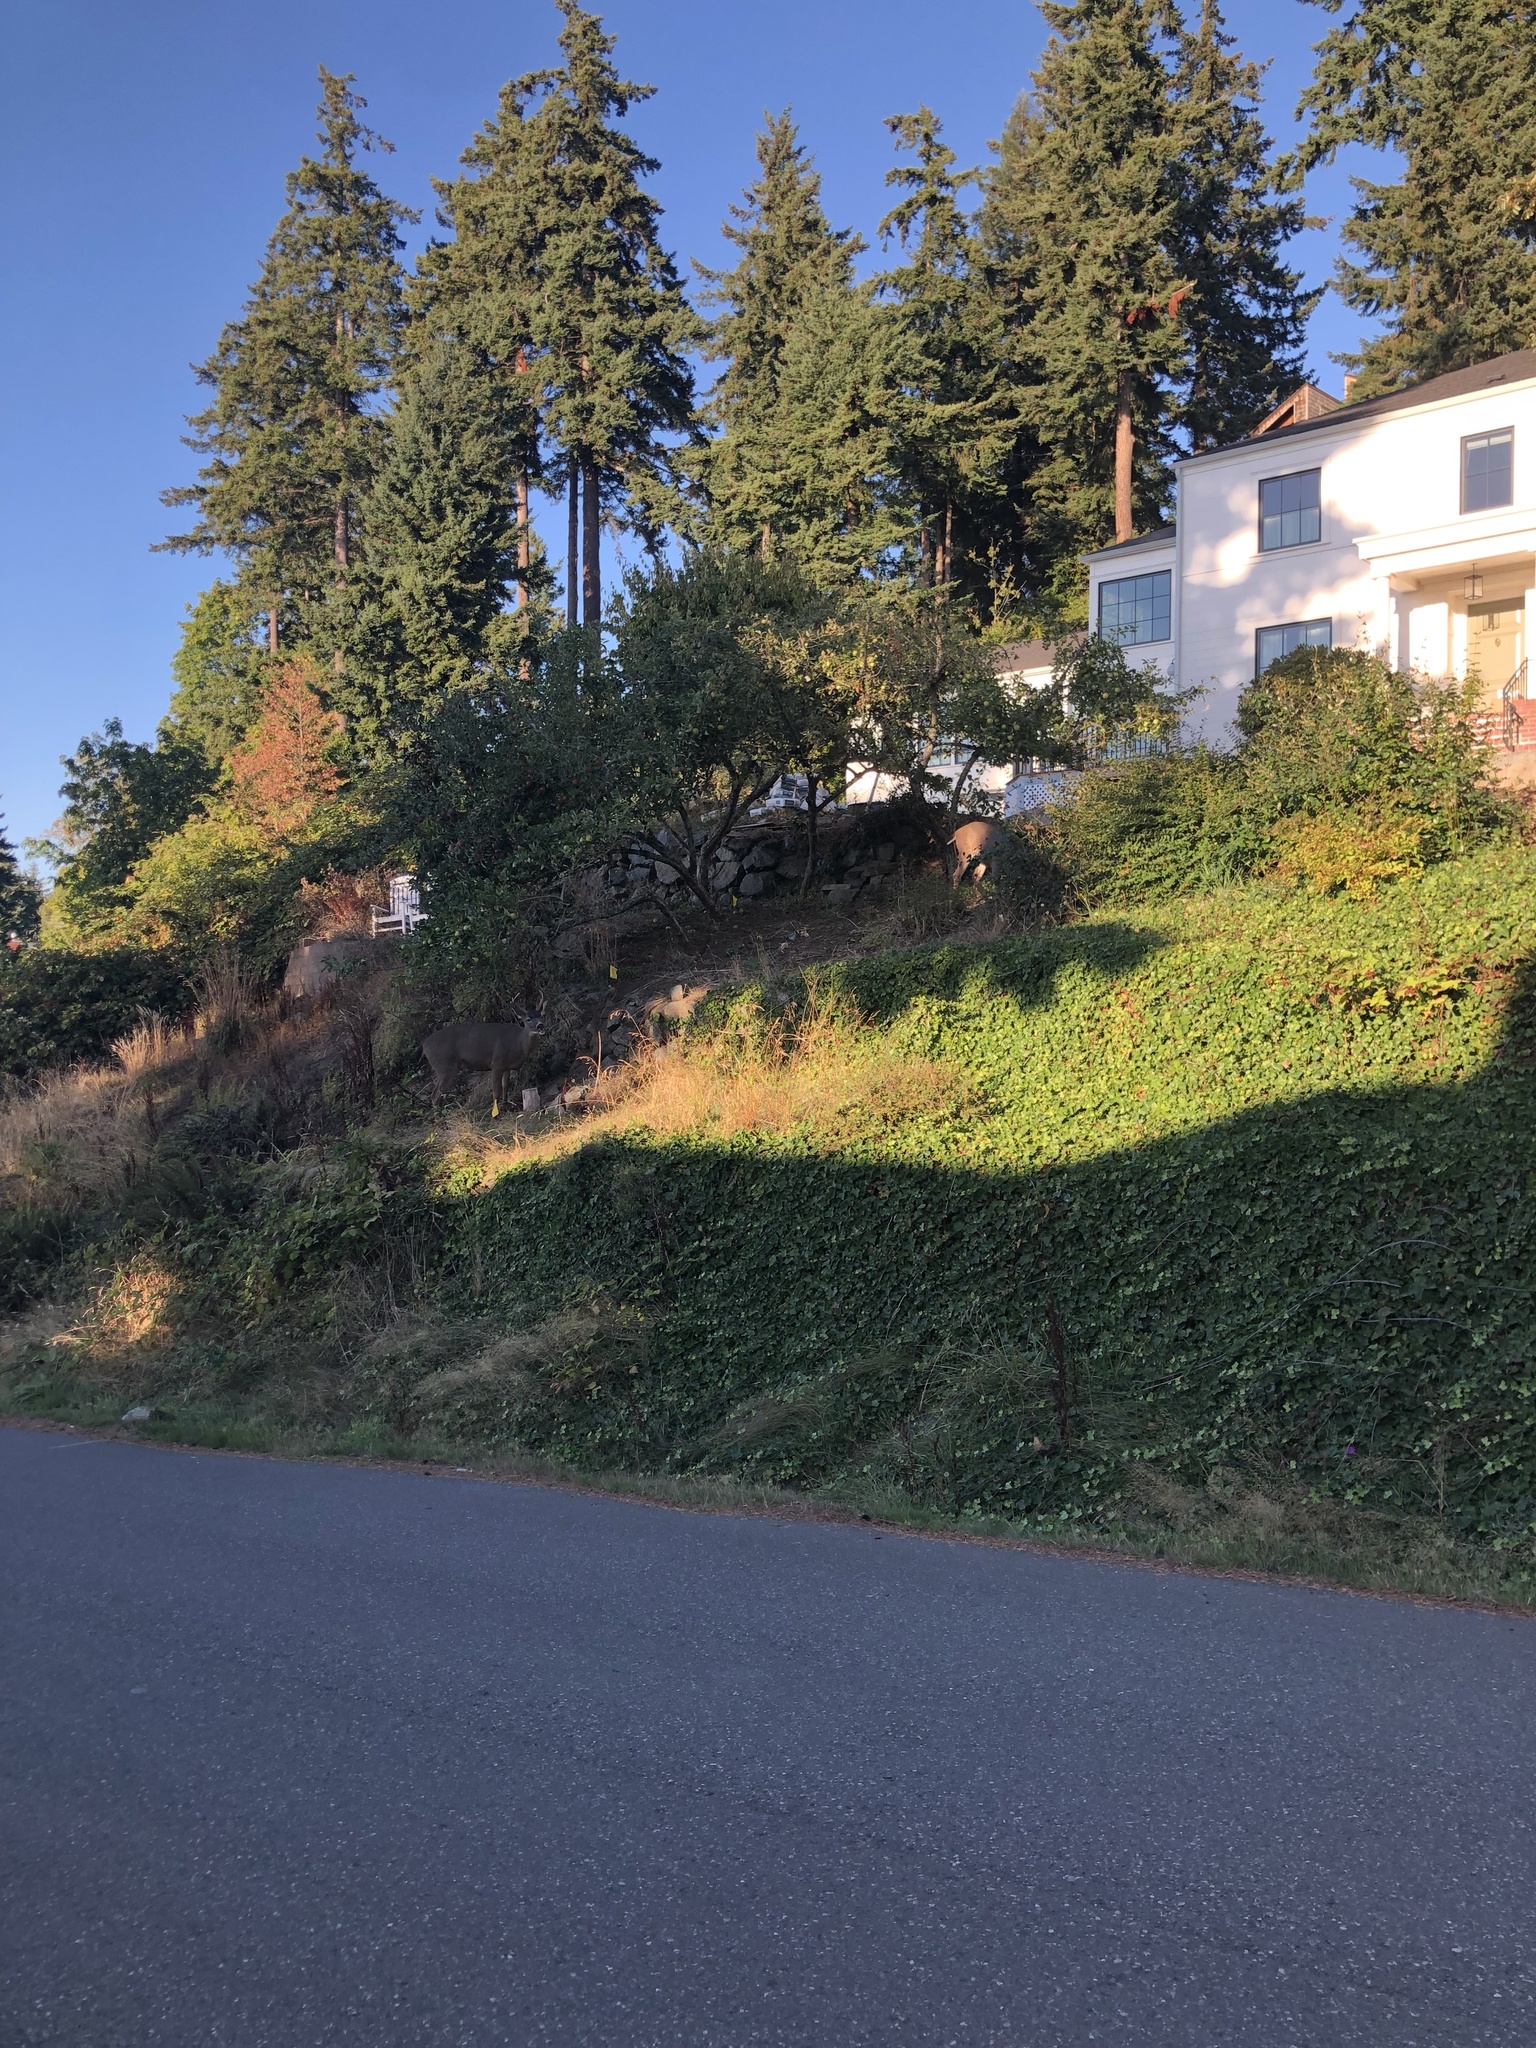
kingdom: Animalia
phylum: Chordata
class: Mammalia
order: Artiodactyla
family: Cervidae
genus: Odocoileus
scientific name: Odocoileus hemionus
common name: Mule deer
